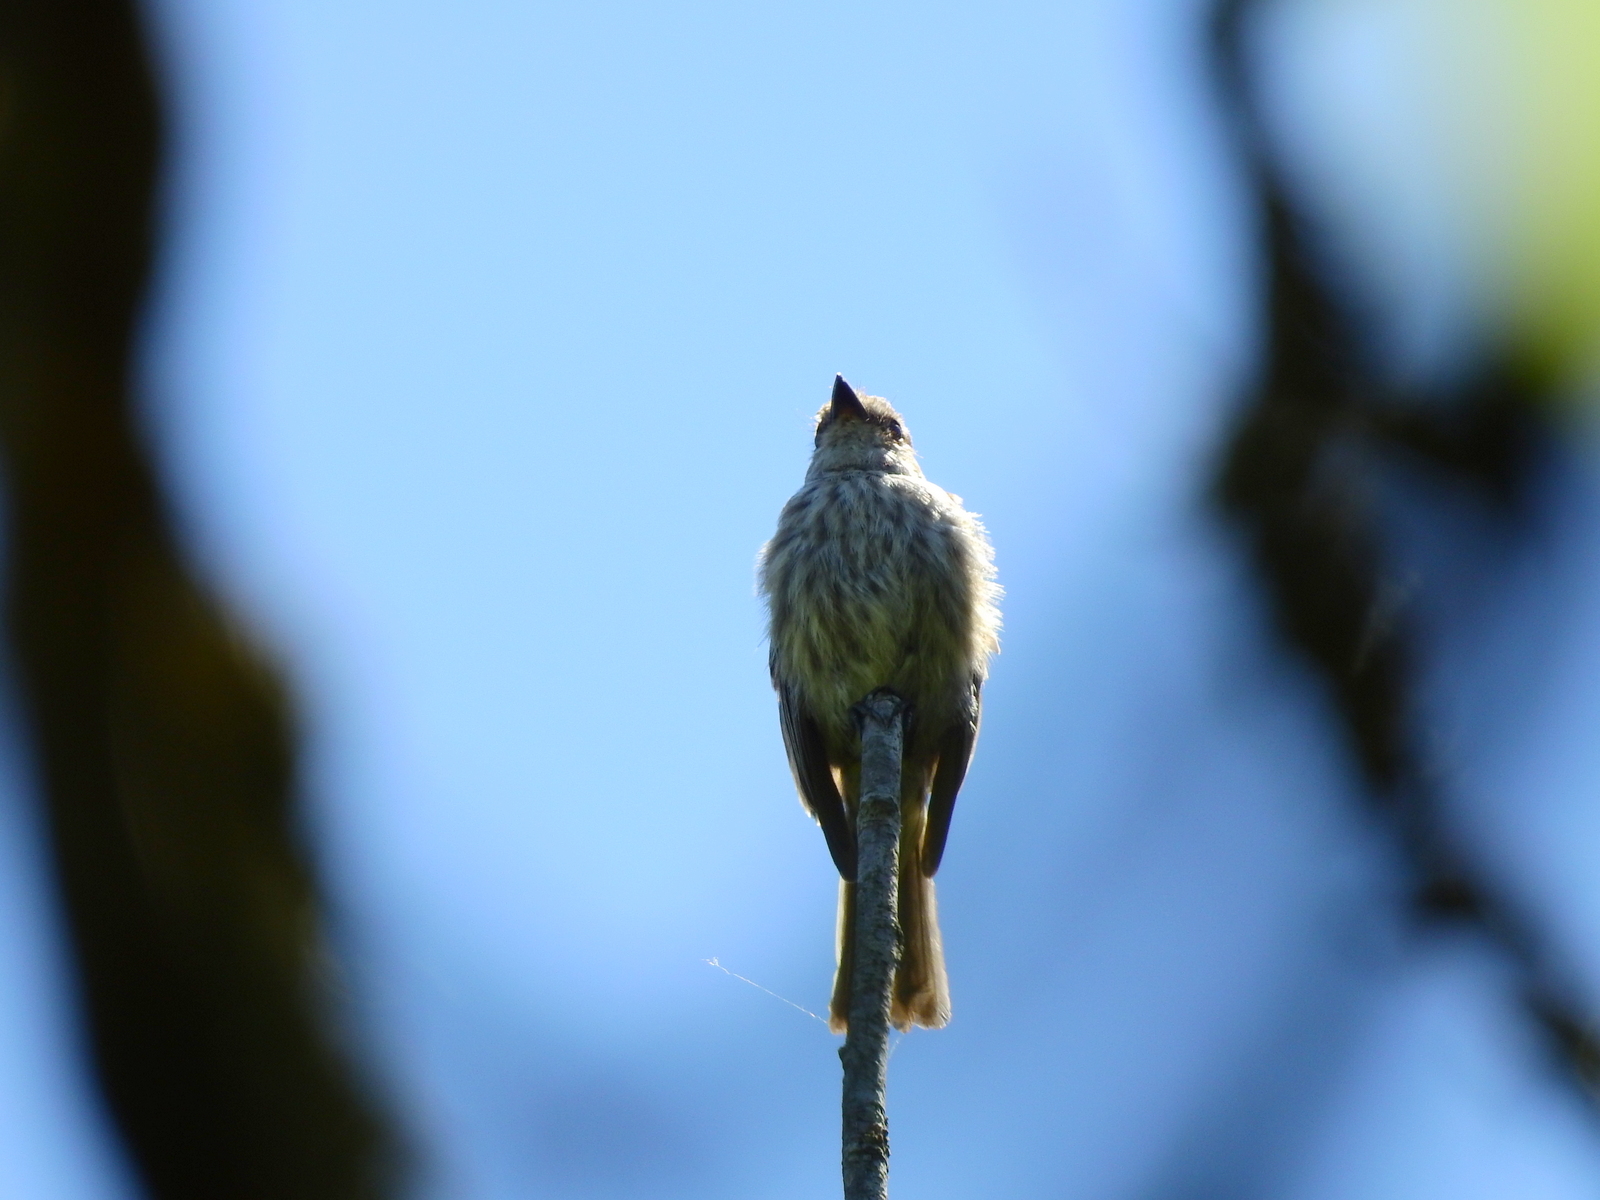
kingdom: Animalia
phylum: Chordata
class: Aves
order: Passeriformes
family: Tyrannidae
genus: Pyrocephalus
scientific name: Pyrocephalus rubinus
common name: Vermilion flycatcher
